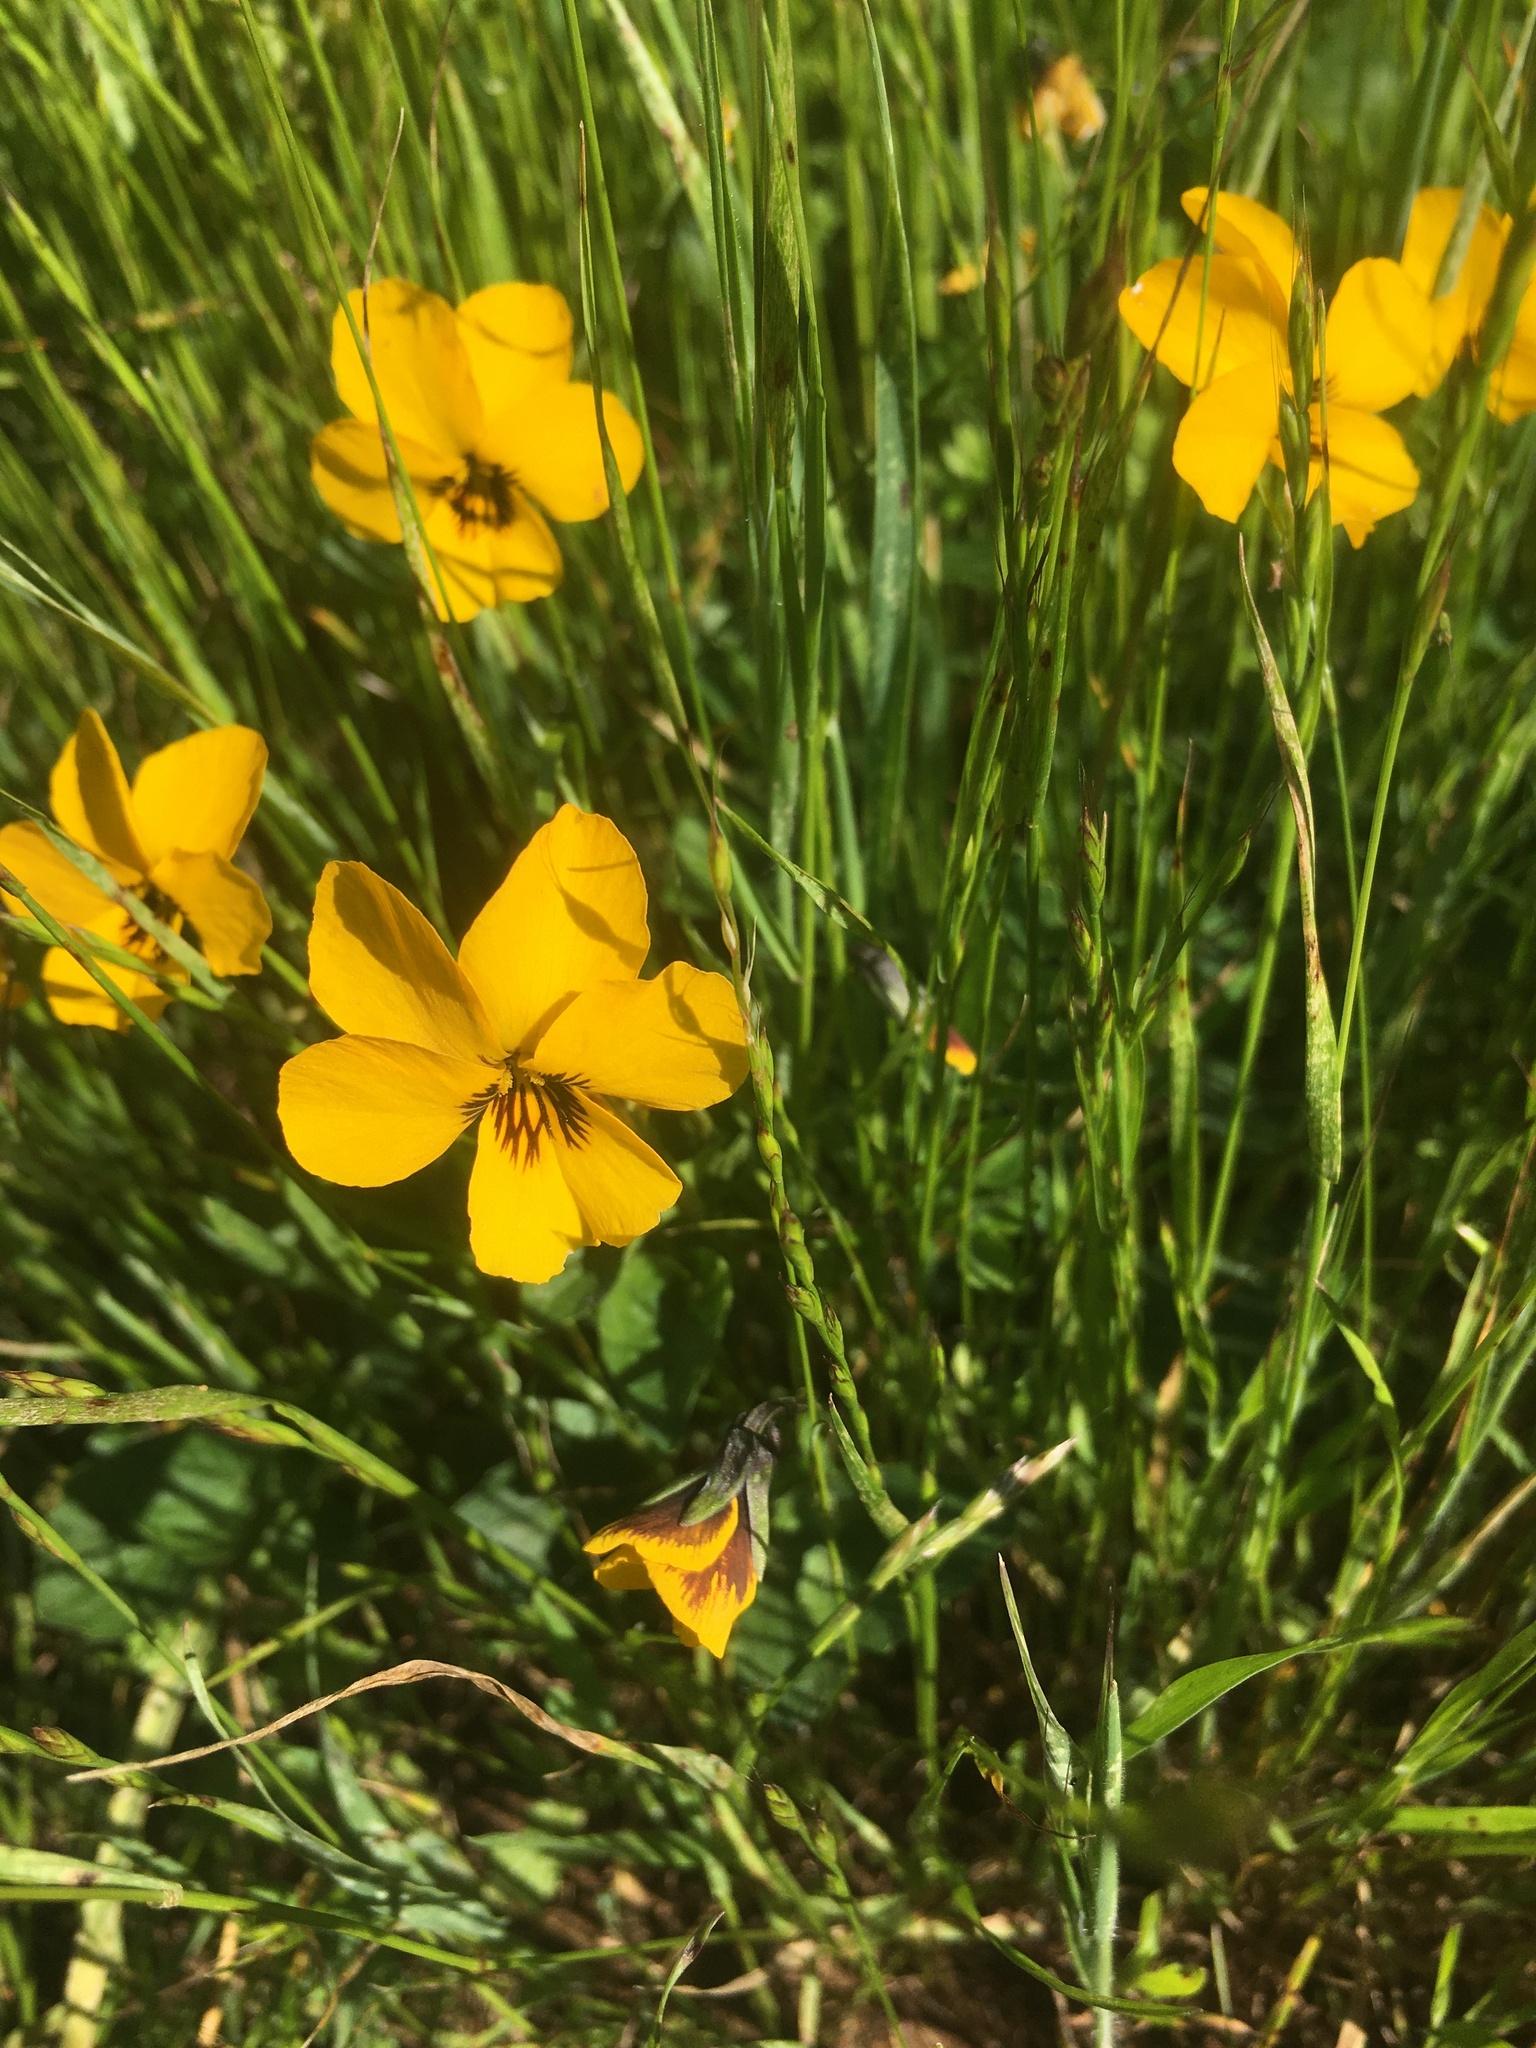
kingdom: Plantae
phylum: Tracheophyta
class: Magnoliopsida
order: Malpighiales
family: Violaceae
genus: Viola
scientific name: Viola pedunculata
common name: California golden violet
